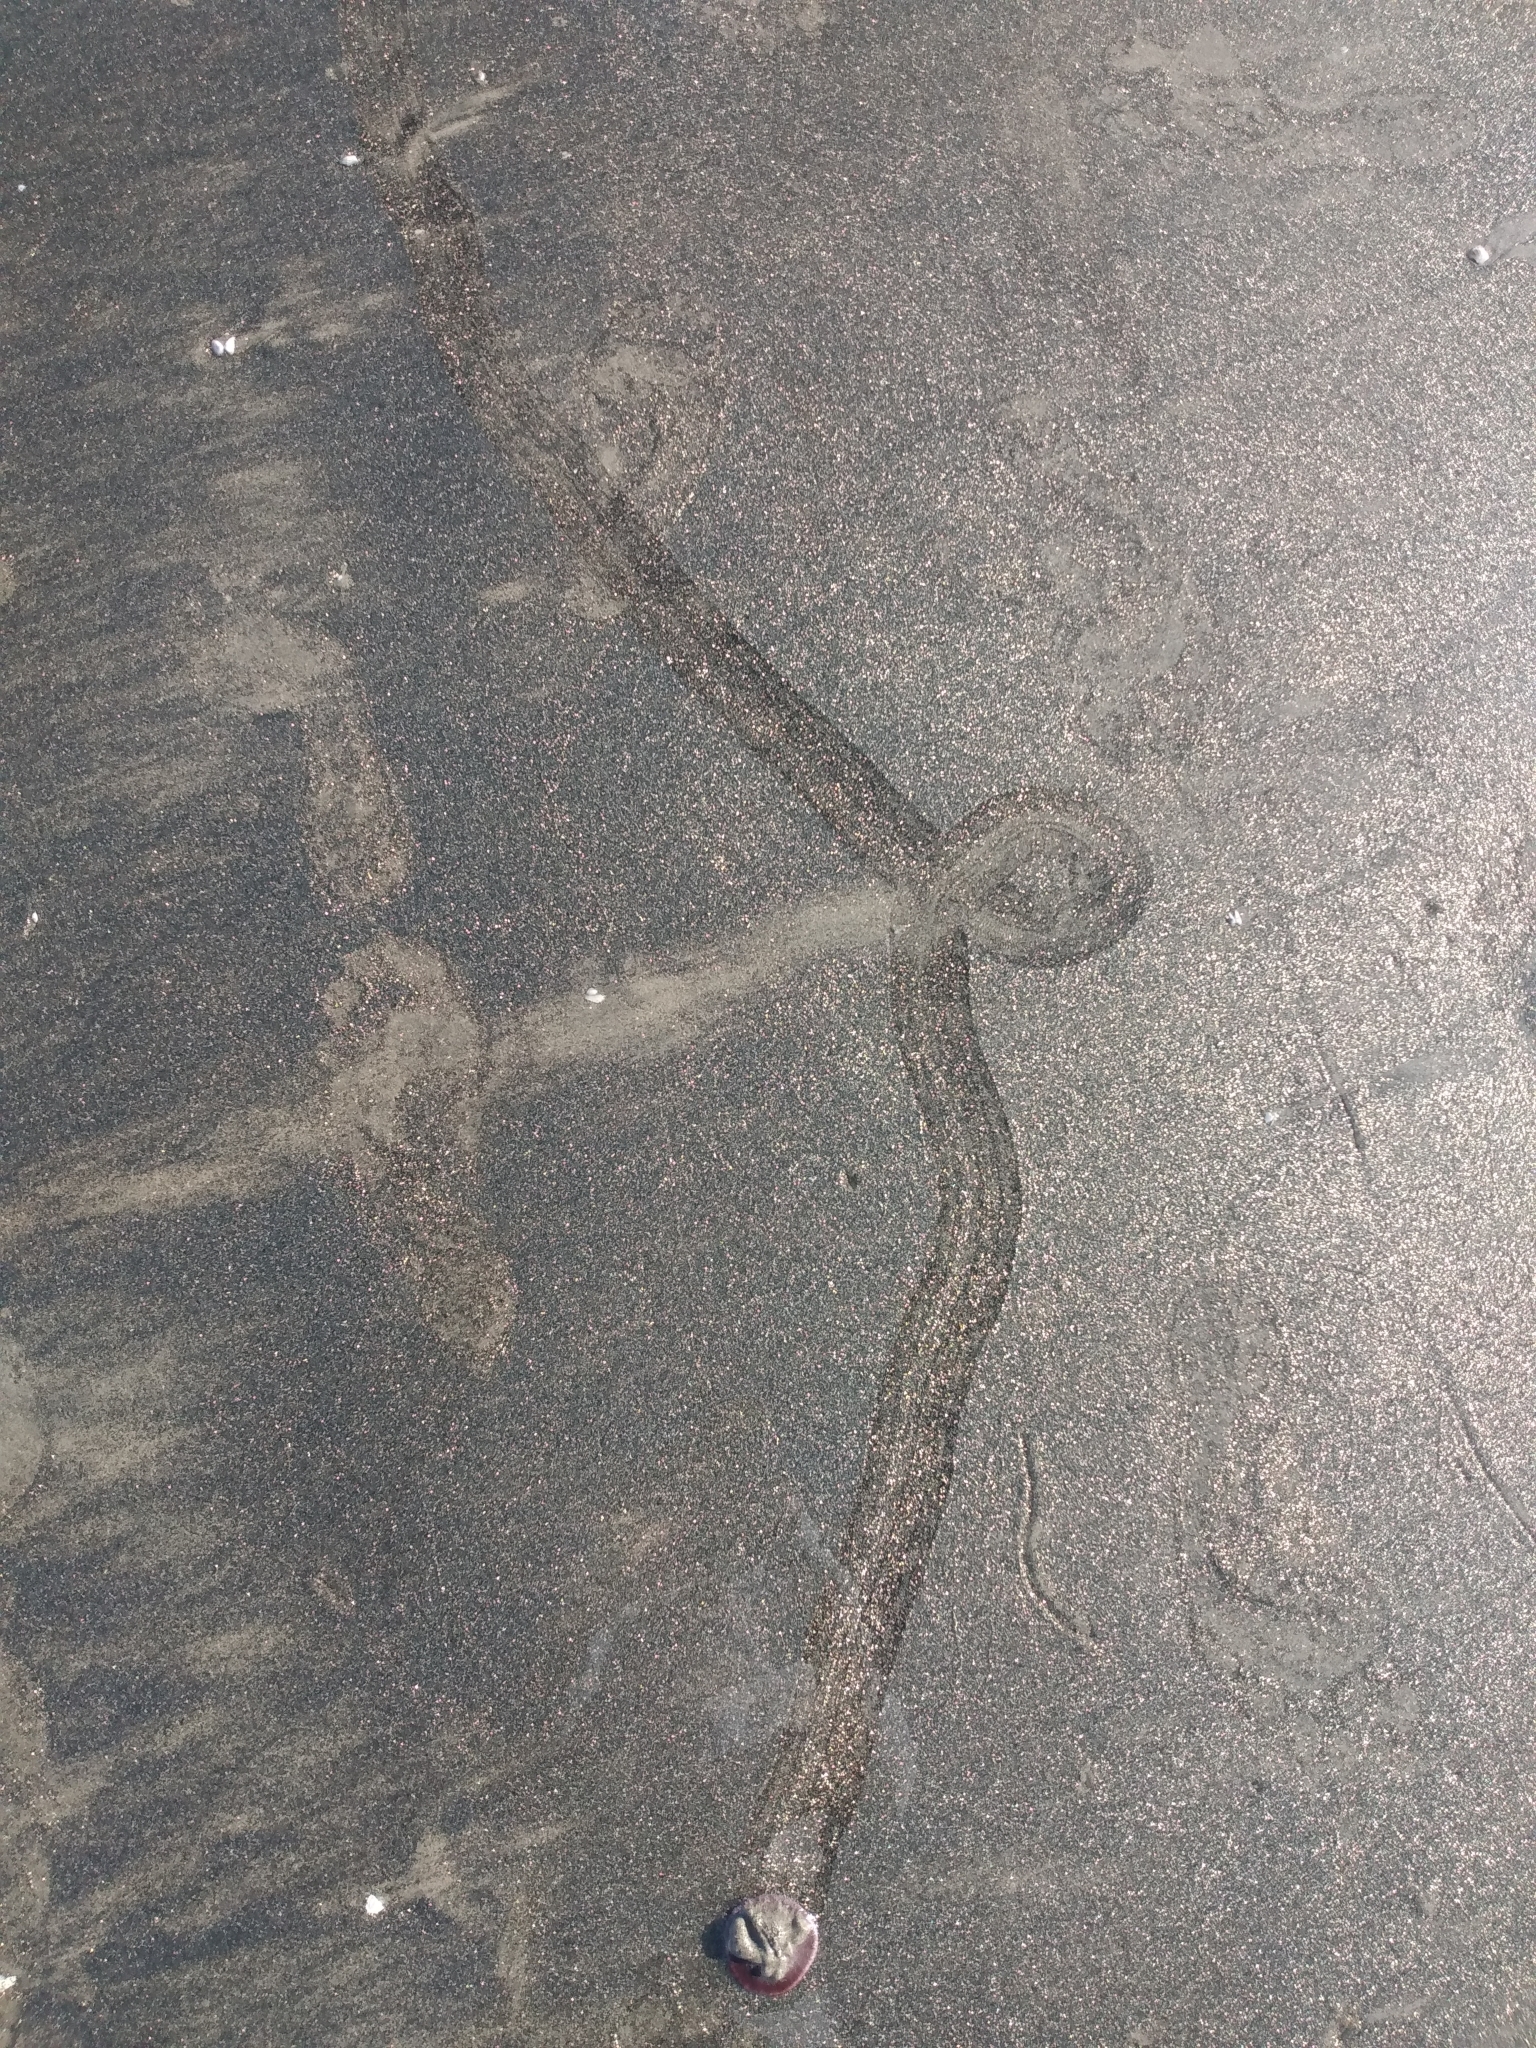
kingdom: Animalia
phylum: Echinodermata
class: Echinoidea
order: Echinolampadacea
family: Dendrasteridae
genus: Dendraster
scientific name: Dendraster excentricus
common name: Eccentric sand dollar sea urchin
